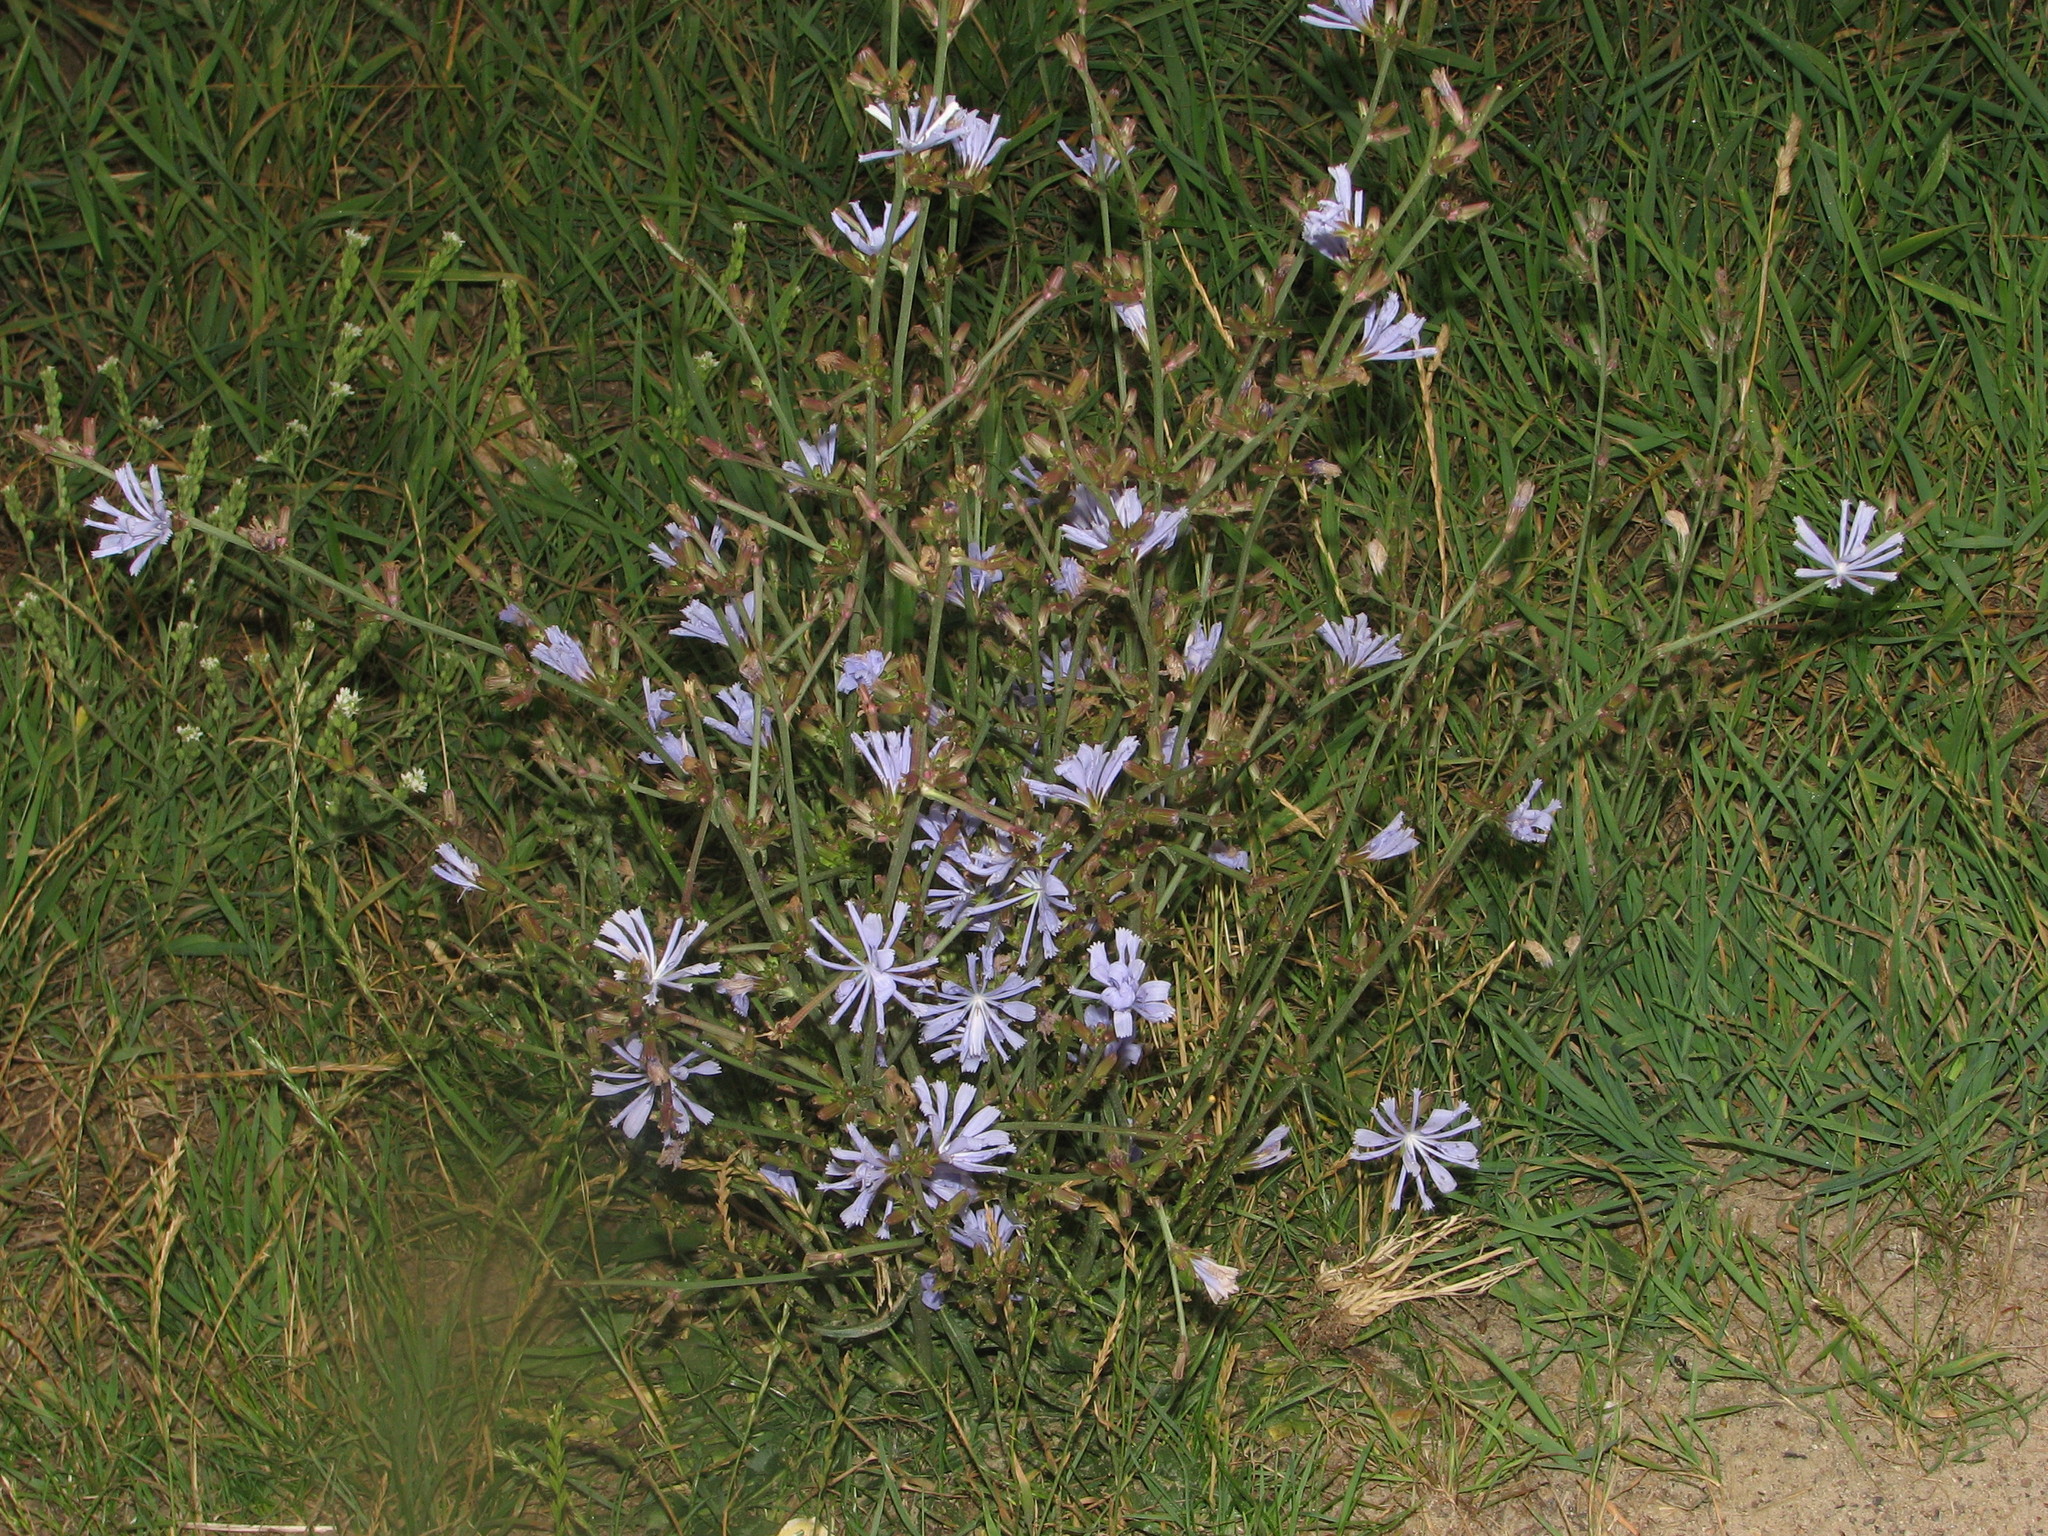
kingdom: Plantae
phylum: Tracheophyta
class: Magnoliopsida
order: Asterales
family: Asteraceae
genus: Cichorium
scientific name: Cichorium intybus
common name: Chicory
